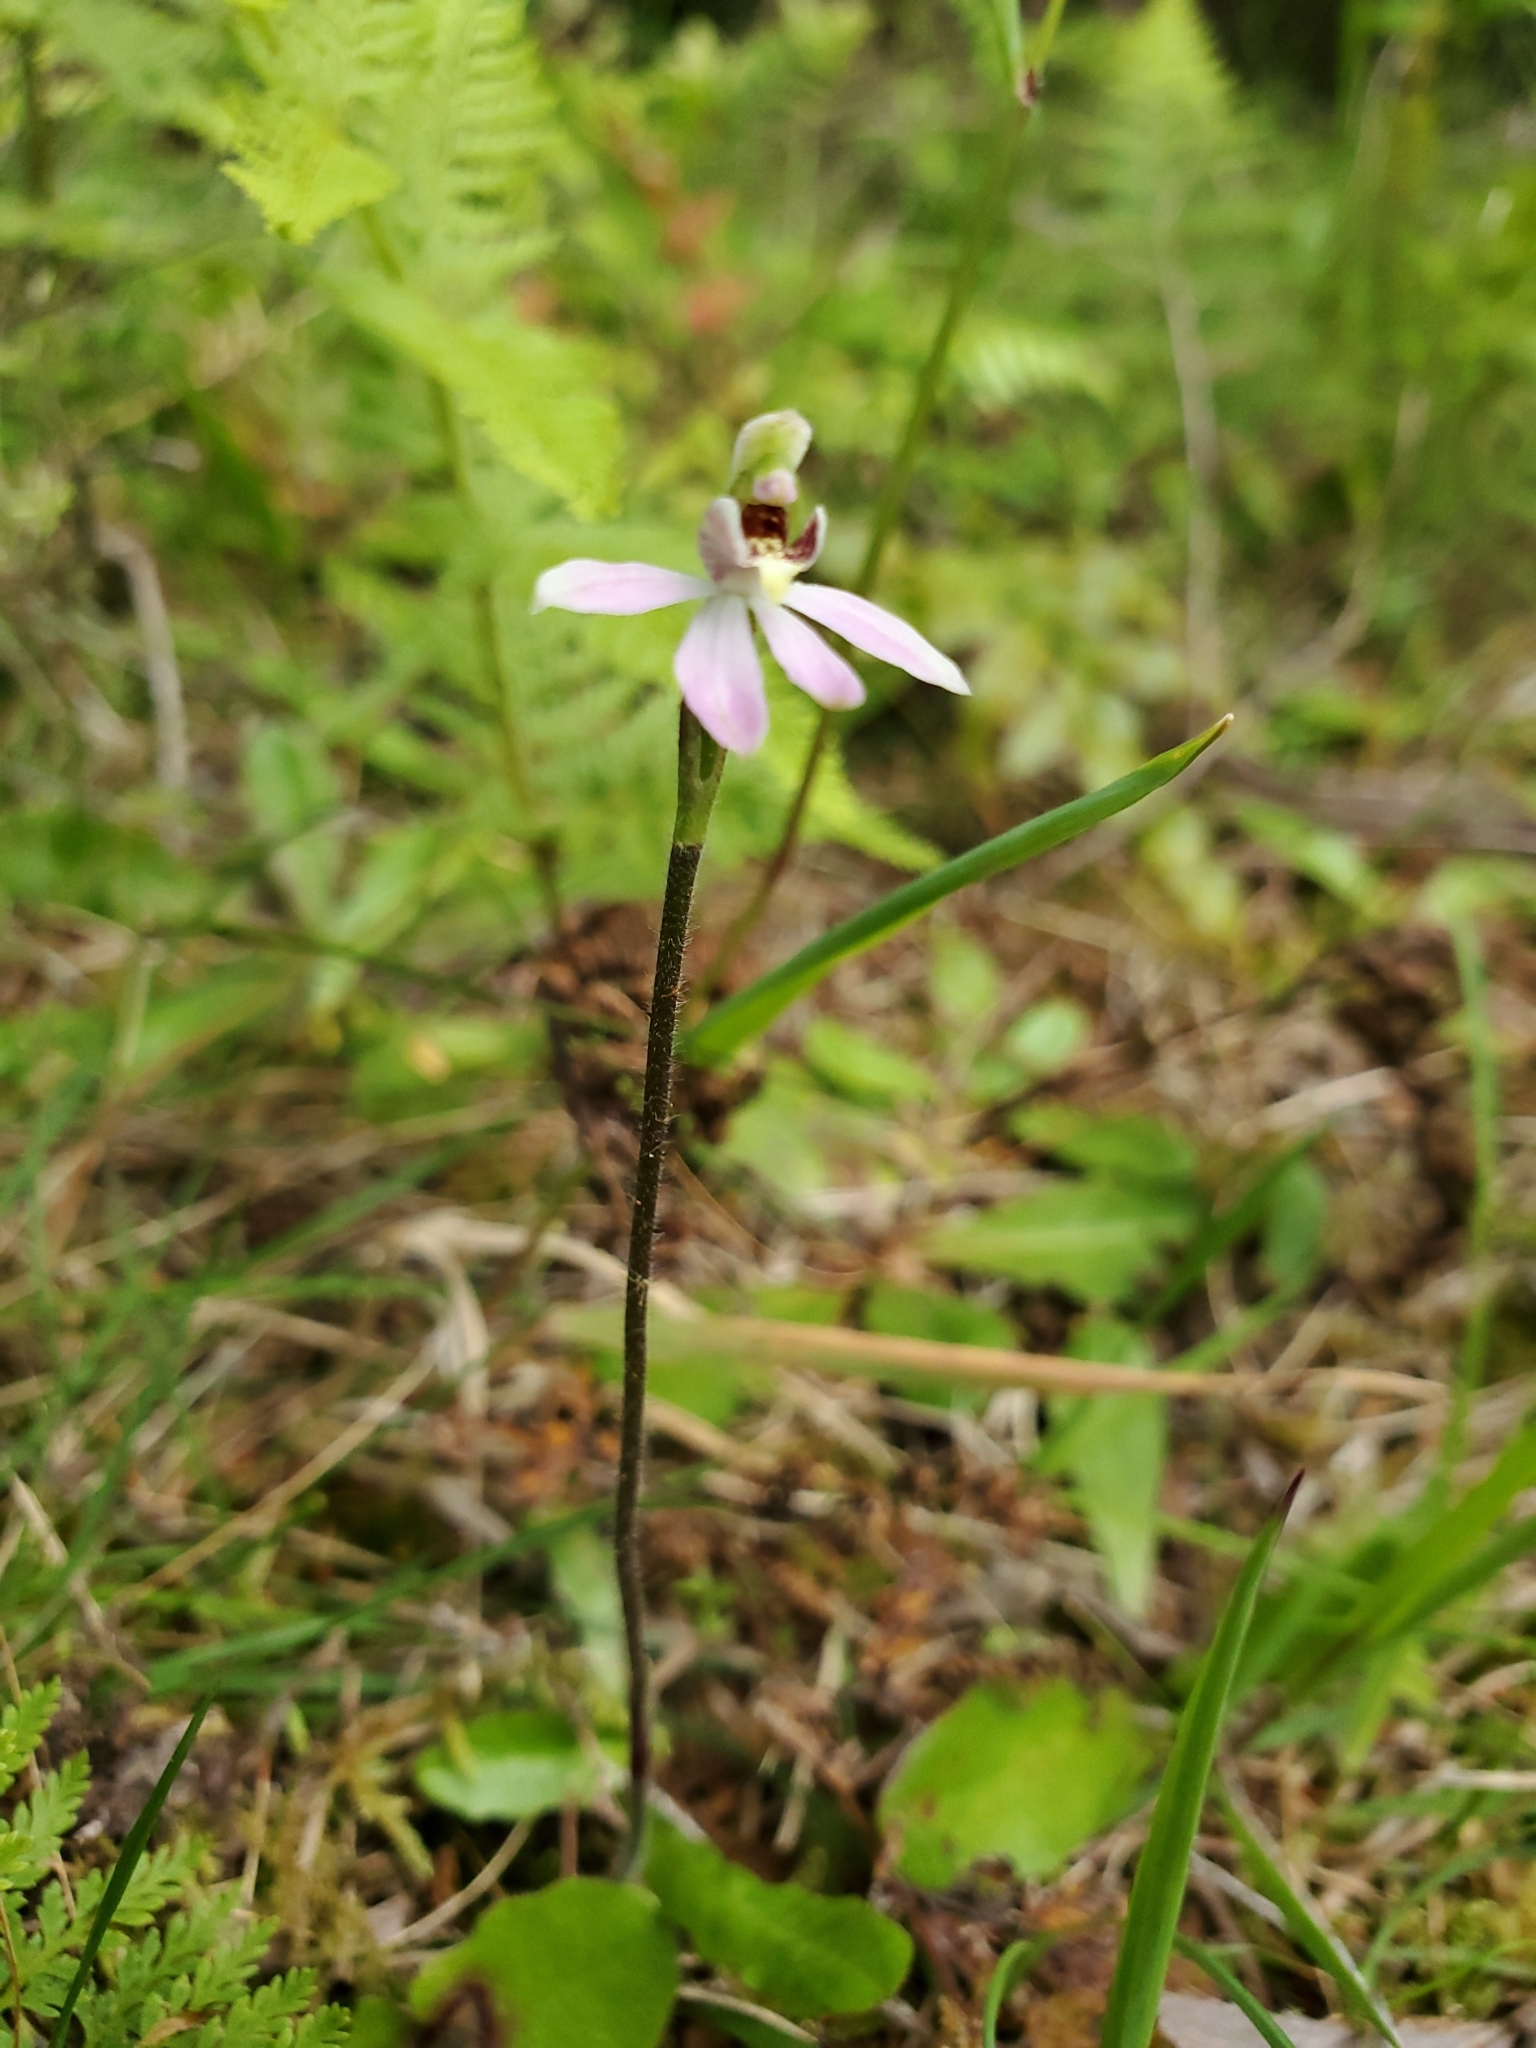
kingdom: Plantae
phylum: Tracheophyta
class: Liliopsida
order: Asparagales
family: Orchidaceae
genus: Caladenia
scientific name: Caladenia variegata
